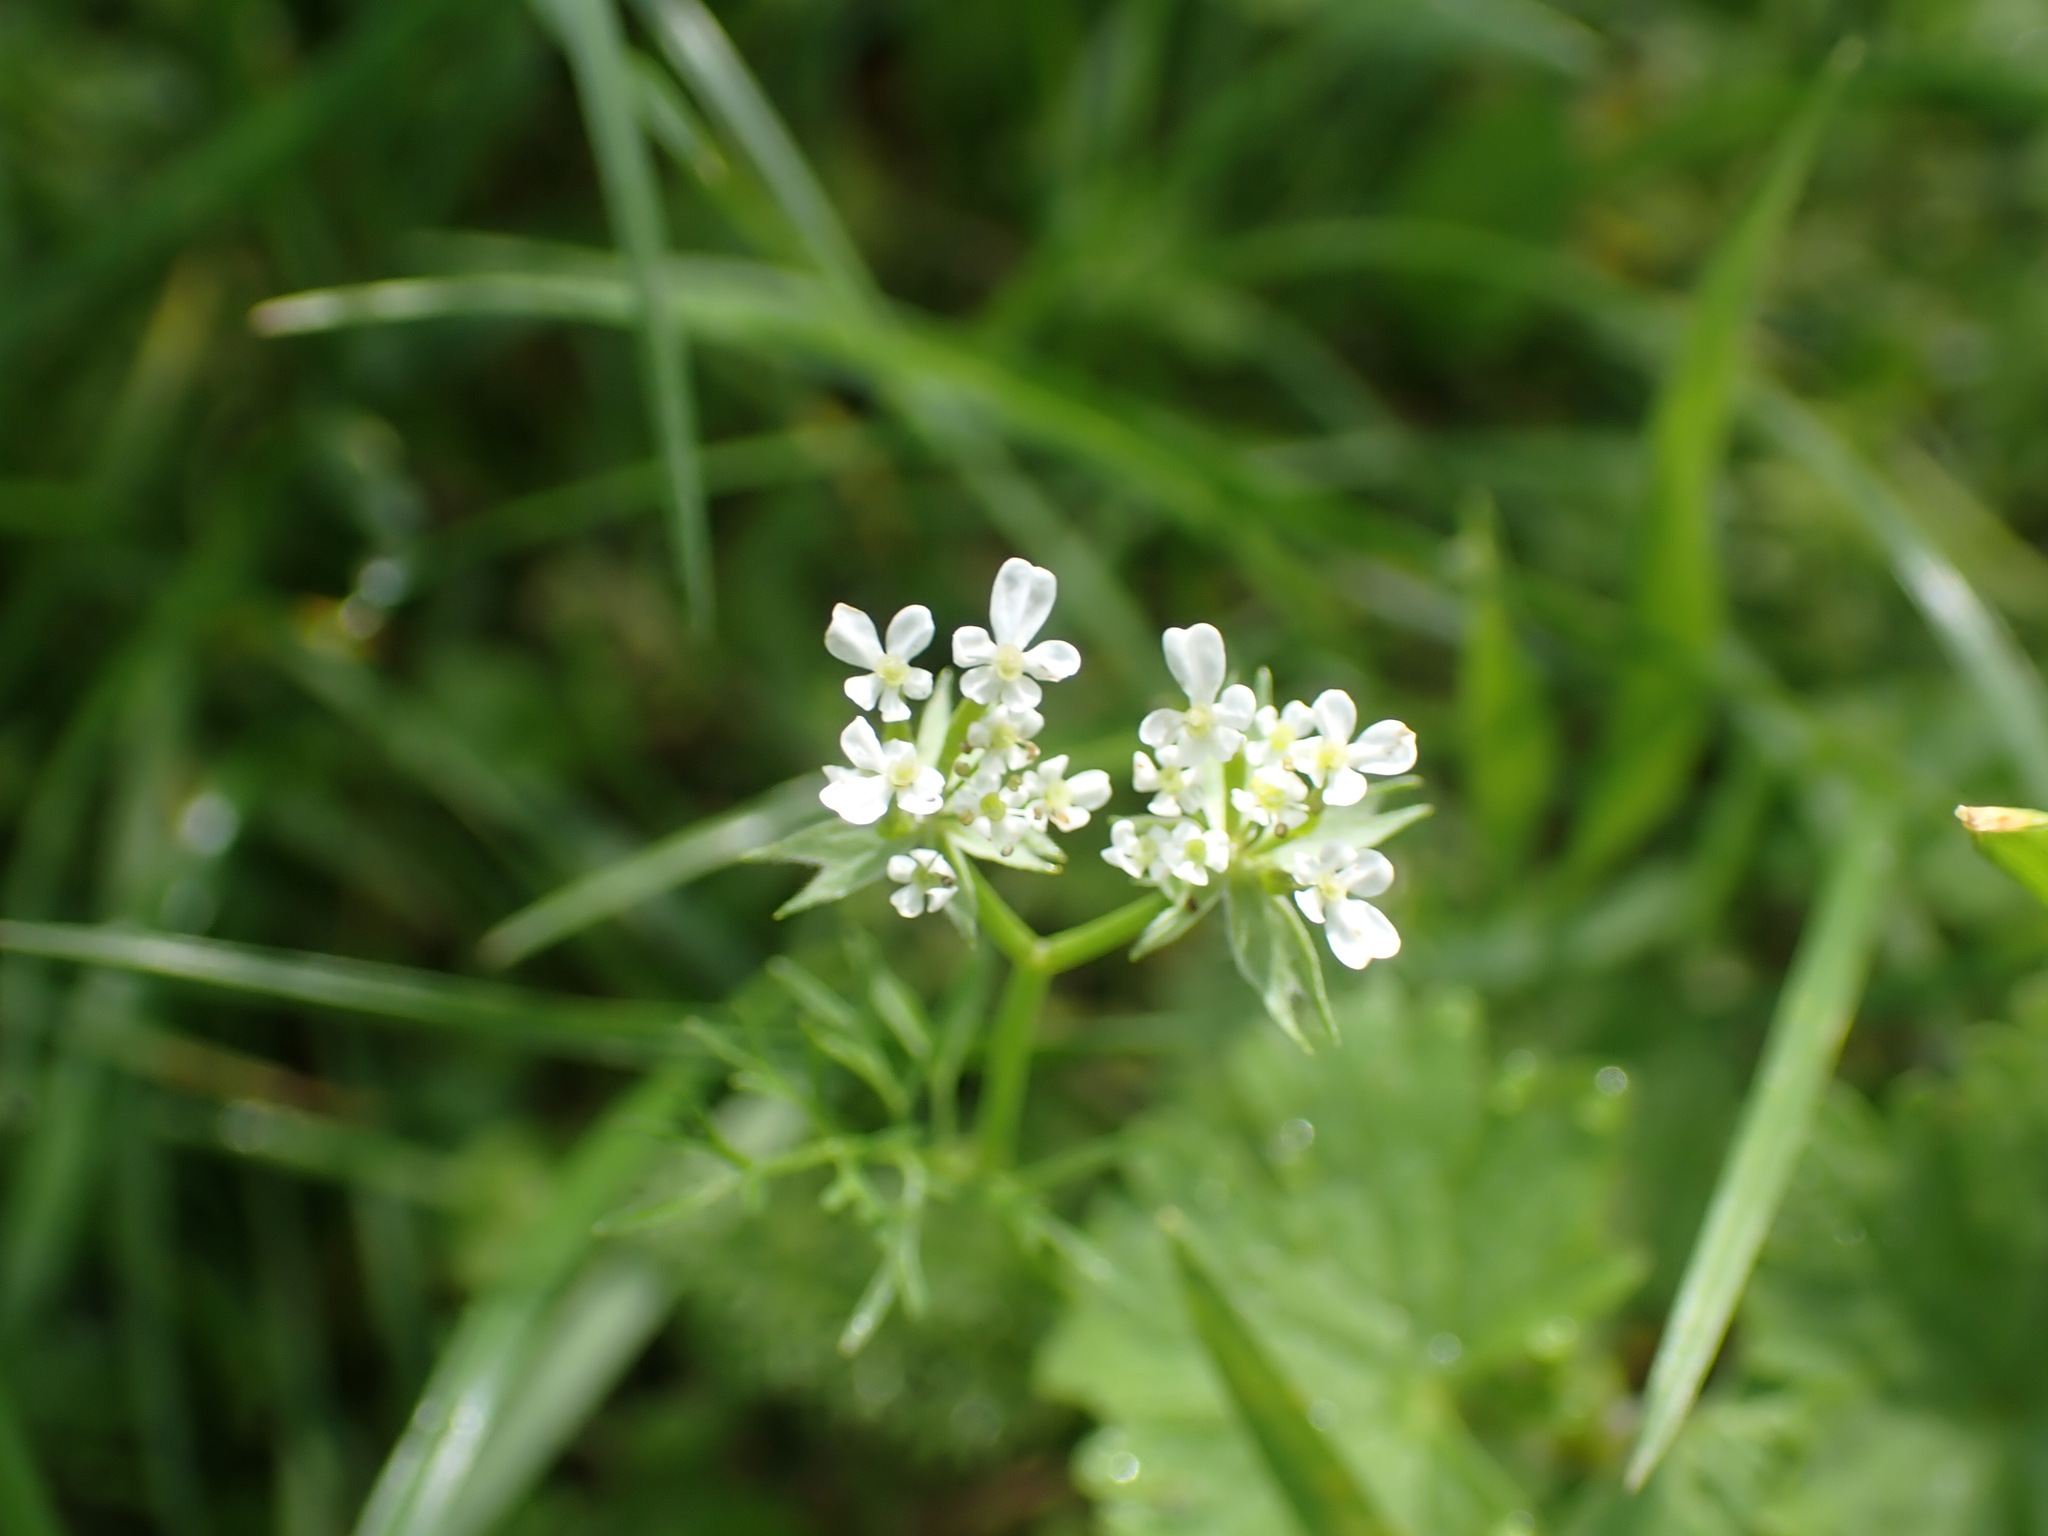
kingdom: Plantae
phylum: Tracheophyta
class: Magnoliopsida
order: Apiales
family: Apiaceae
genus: Scandix
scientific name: Scandix pecten-veneris
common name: Shepherd's-needle
